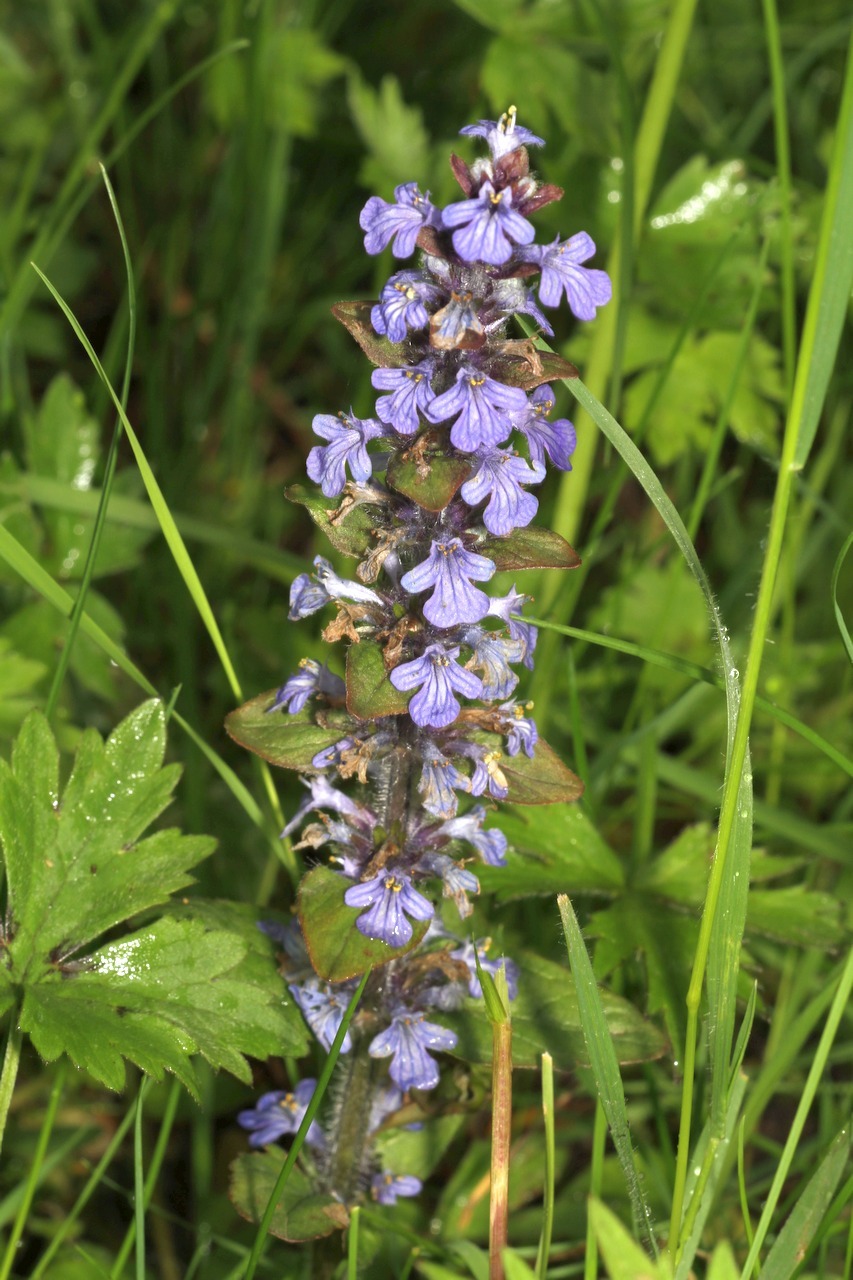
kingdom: Plantae
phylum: Tracheophyta
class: Magnoliopsida
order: Lamiales
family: Lamiaceae
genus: Ajuga
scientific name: Ajuga reptans
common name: Bugle
